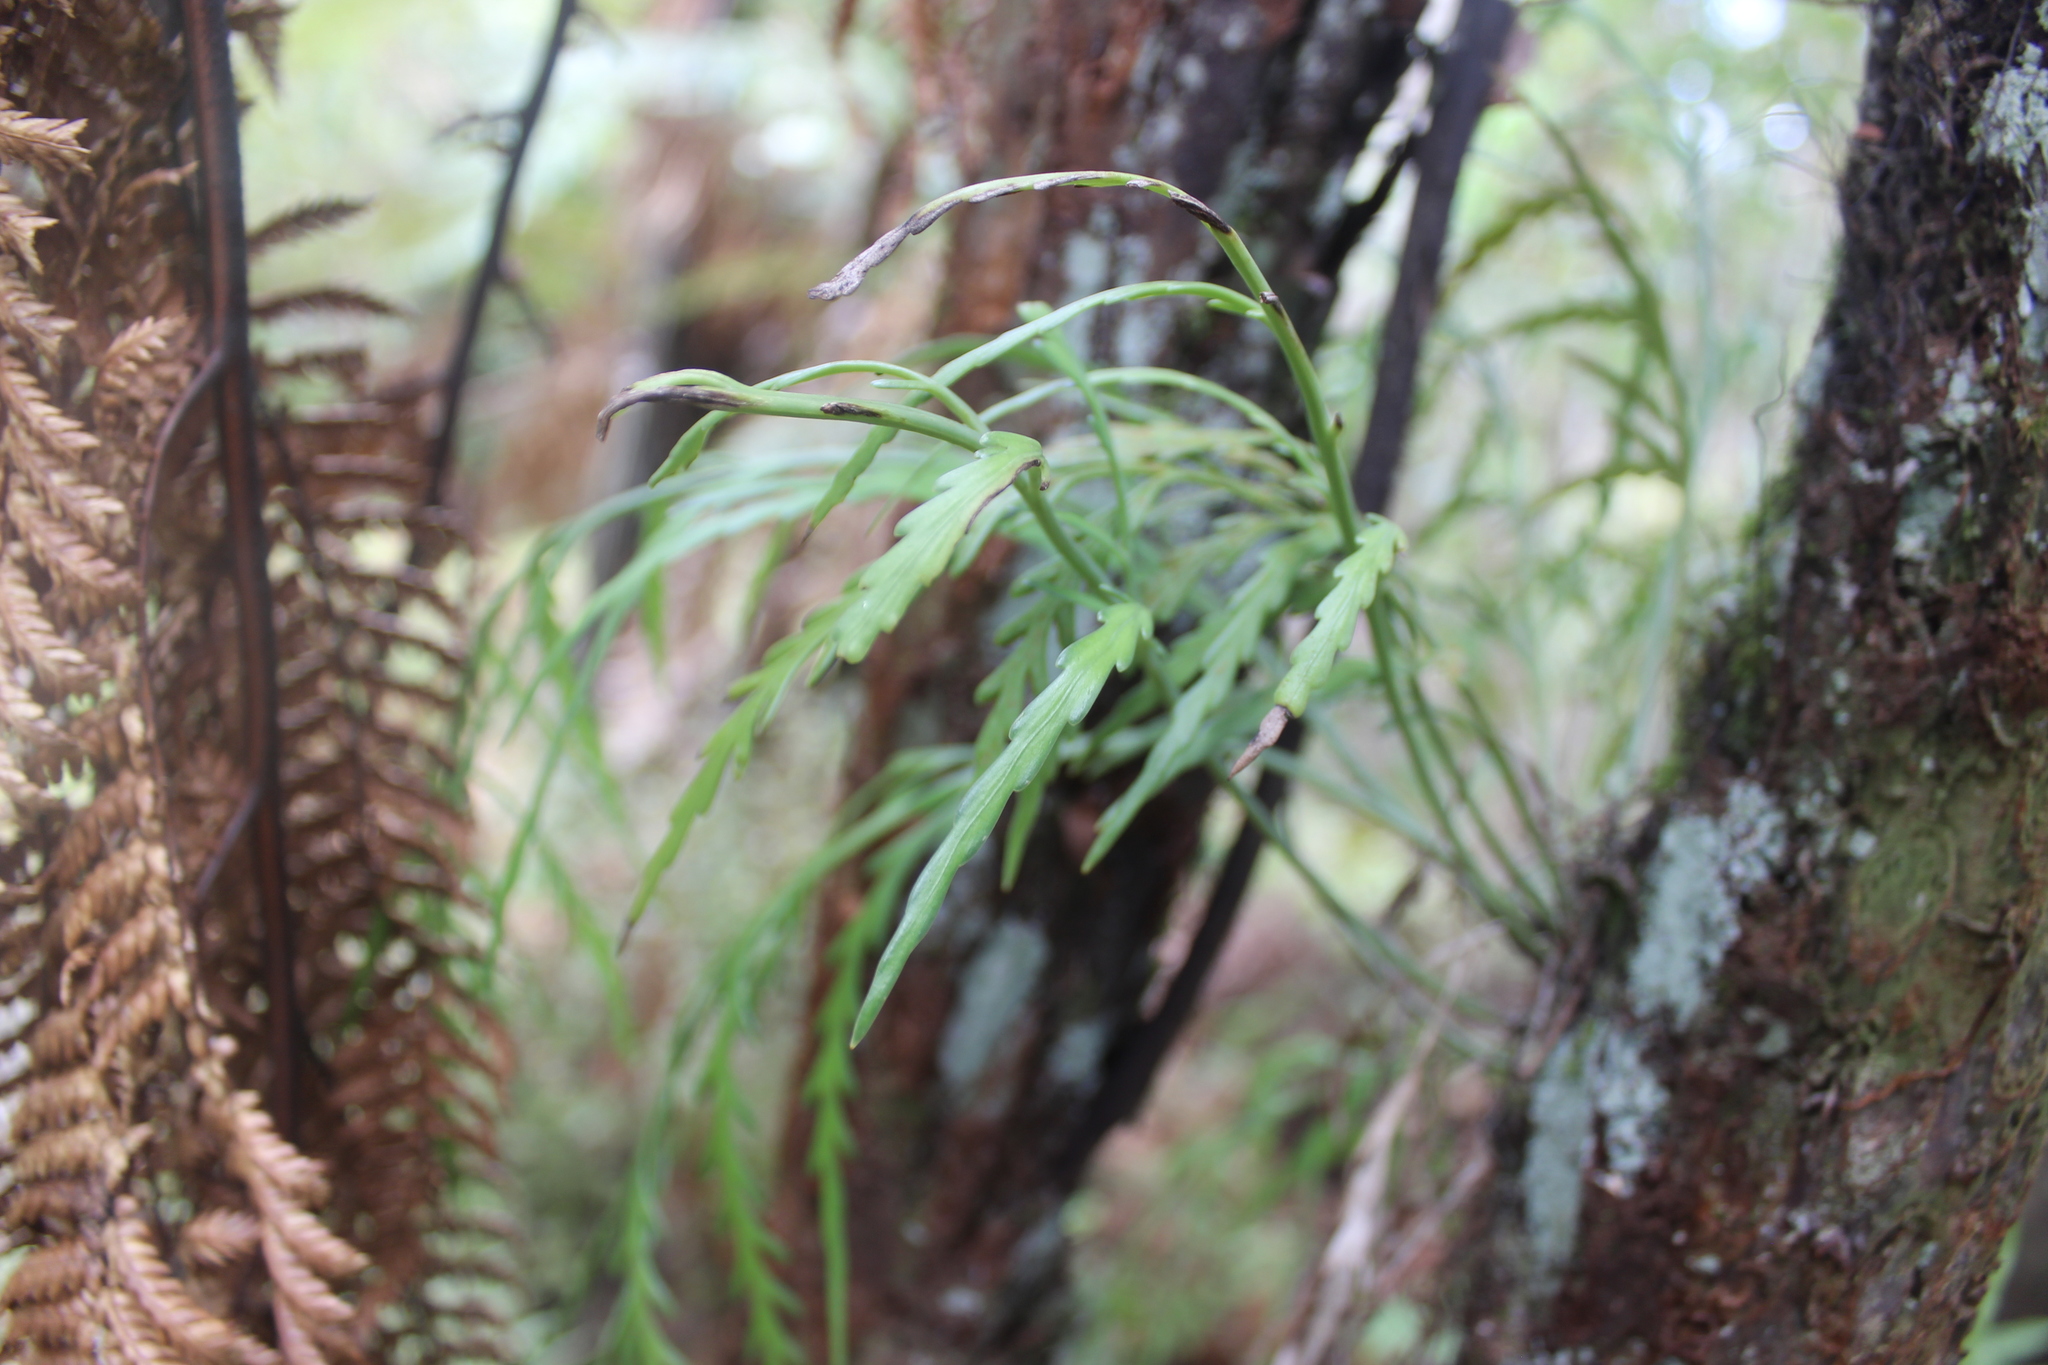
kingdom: Plantae
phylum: Tracheophyta
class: Polypodiopsida
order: Polypodiales
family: Aspleniaceae
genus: Asplenium
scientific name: Asplenium flaccidum
